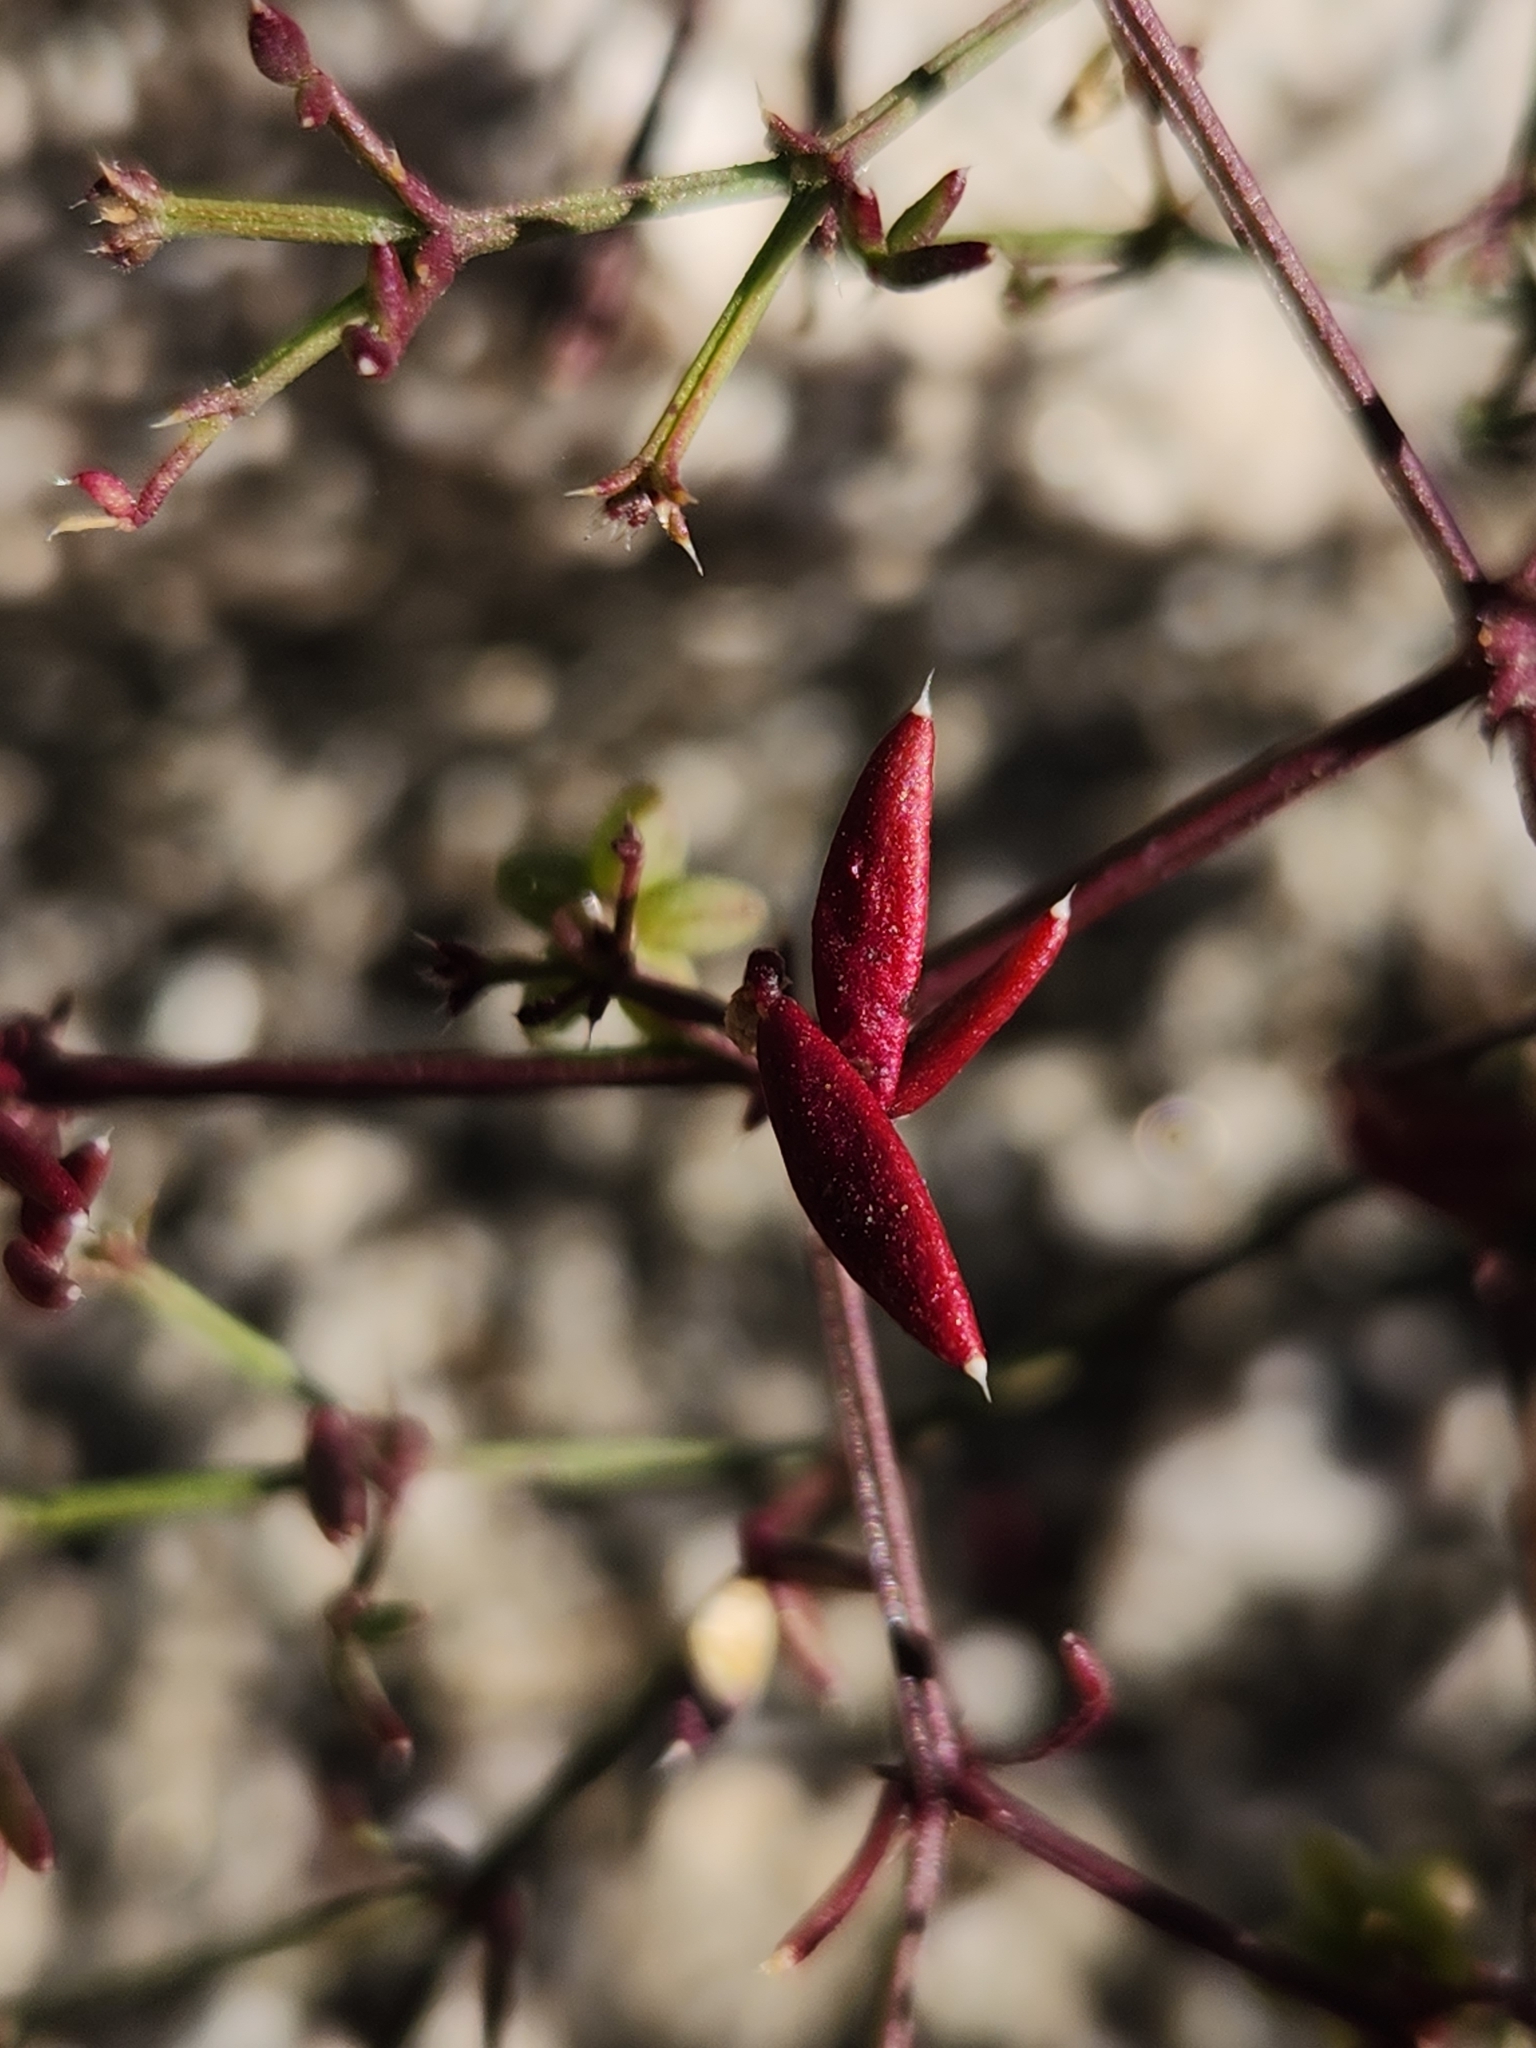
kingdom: Plantae
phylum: Tracheophyta
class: Magnoliopsida
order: Zygophyllales
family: Zygophyllaceae
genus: Fagonia
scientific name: Fagonia laevis
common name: California fagonbush
